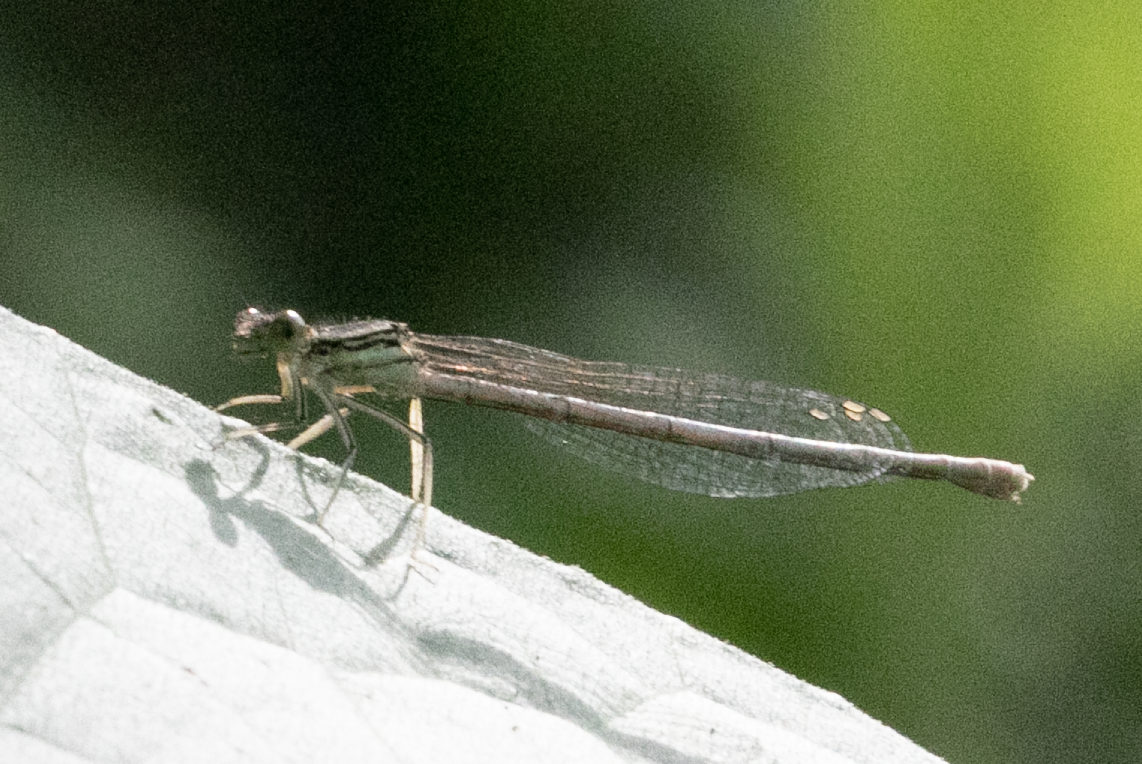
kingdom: Animalia
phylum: Arthropoda
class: Insecta
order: Odonata
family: Platycnemididae
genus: Platycnemis
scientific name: Platycnemis pennipes
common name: White-legged damselfly
